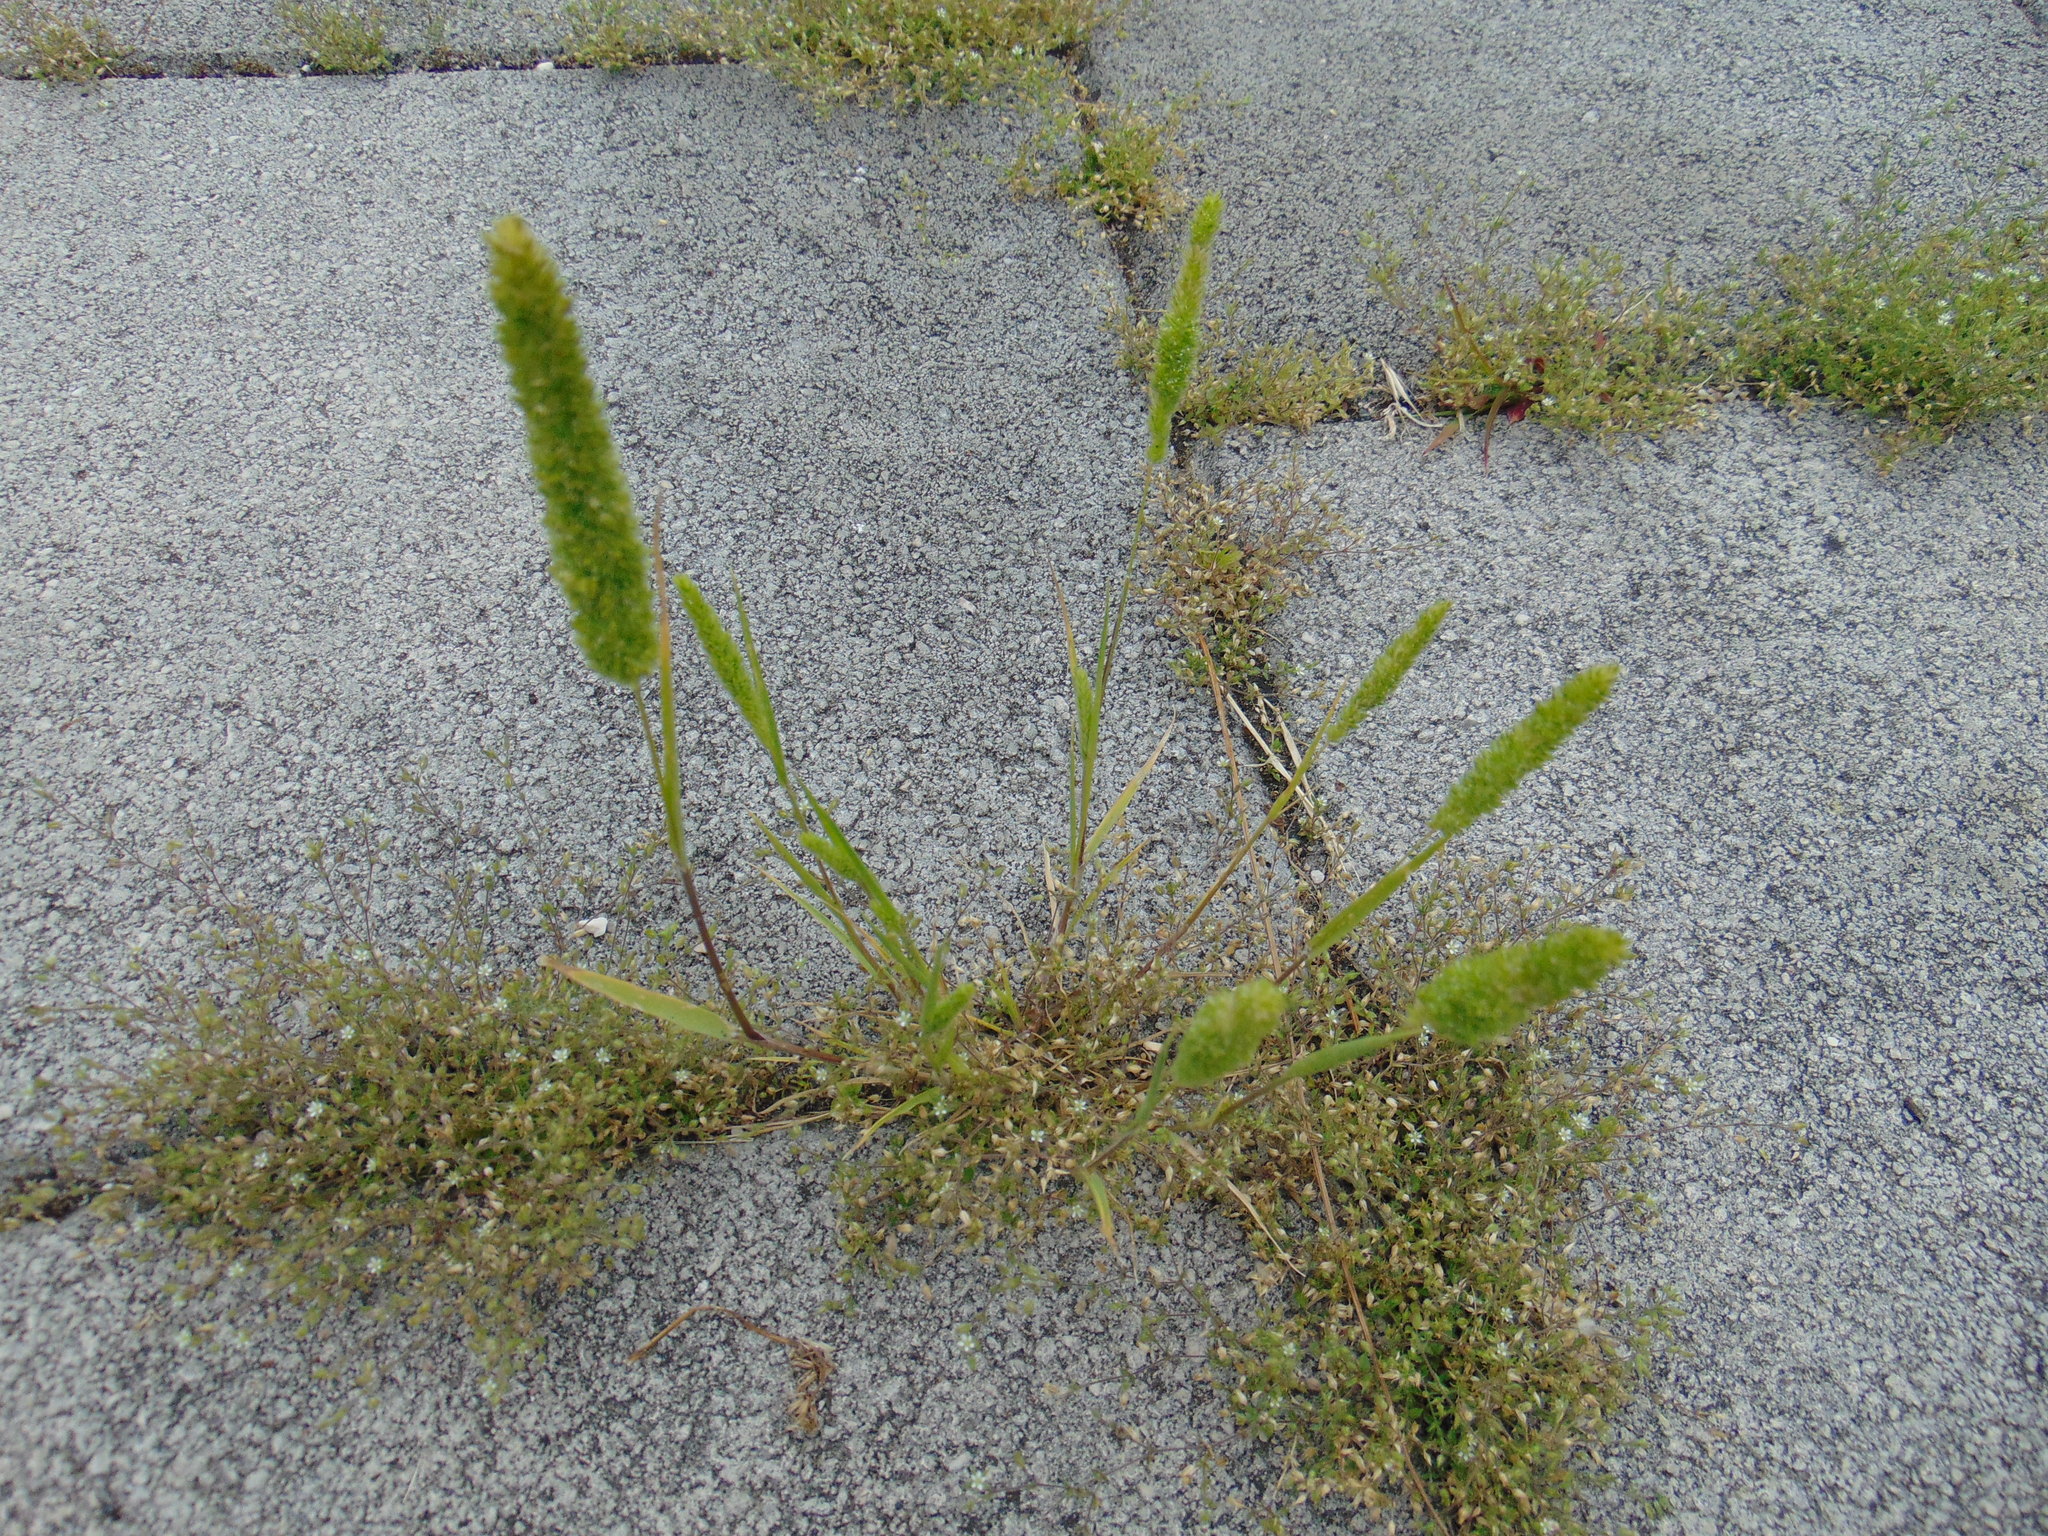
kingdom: Plantae
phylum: Tracheophyta
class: Liliopsida
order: Poales
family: Poaceae
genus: Rostraria
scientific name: Rostraria cristata
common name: Mediterranean hair-grass
